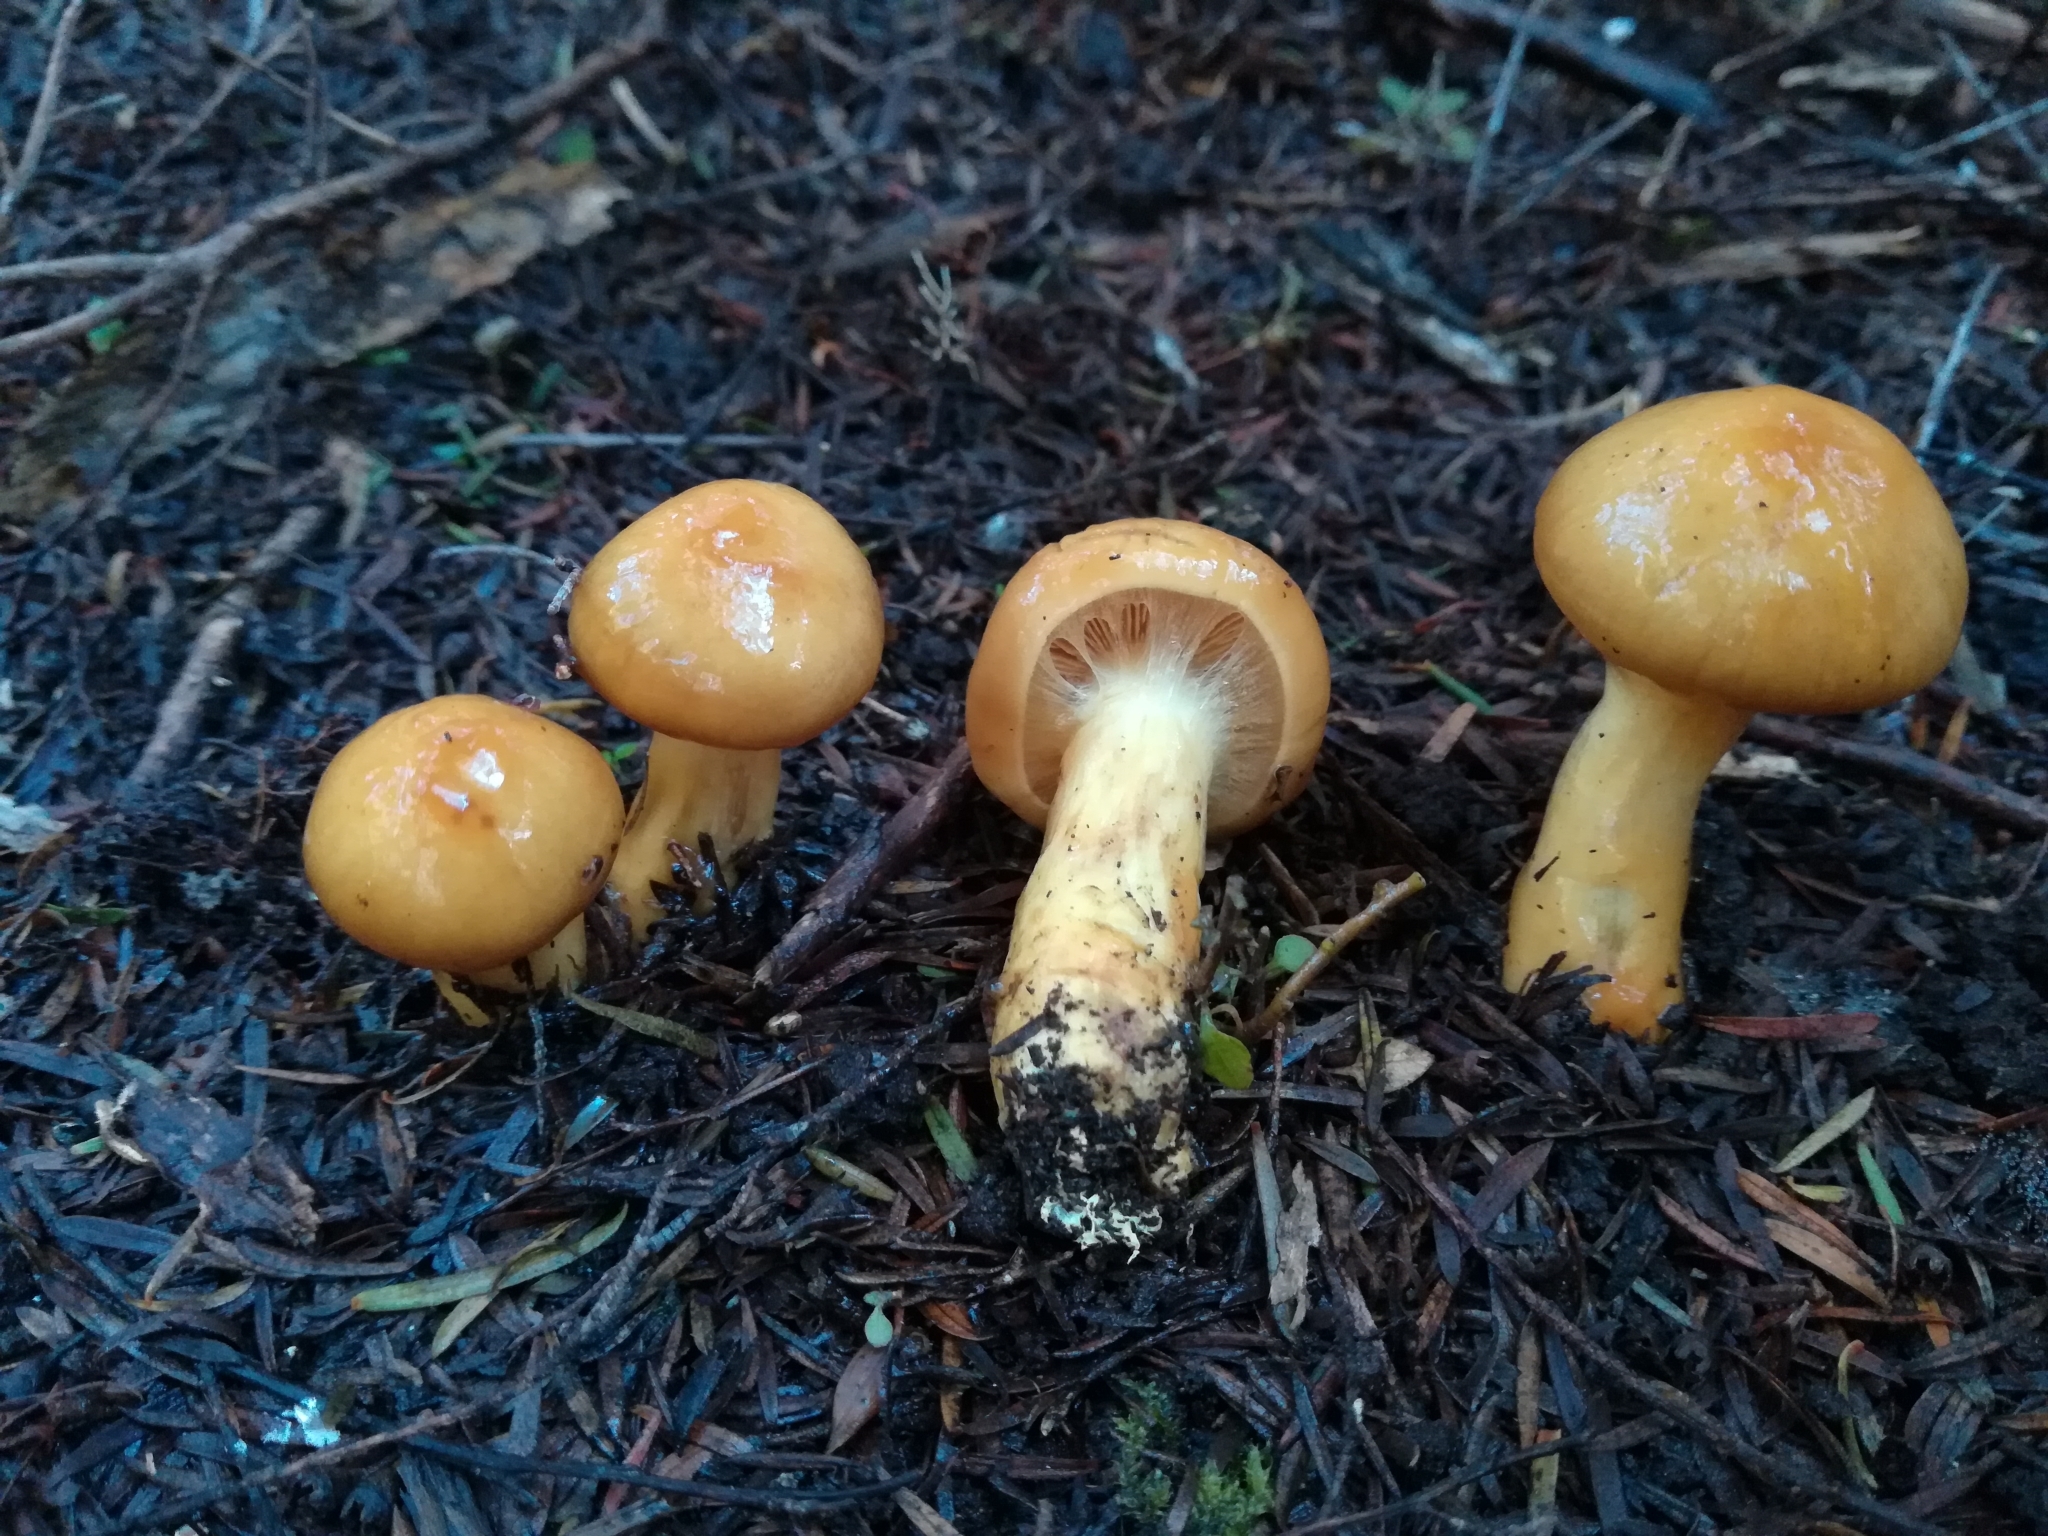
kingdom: Fungi
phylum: Basidiomycota
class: Agaricomycetes
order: Agaricales
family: Cortinariaceae
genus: Cortinarius
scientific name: Cortinarius ignotus
